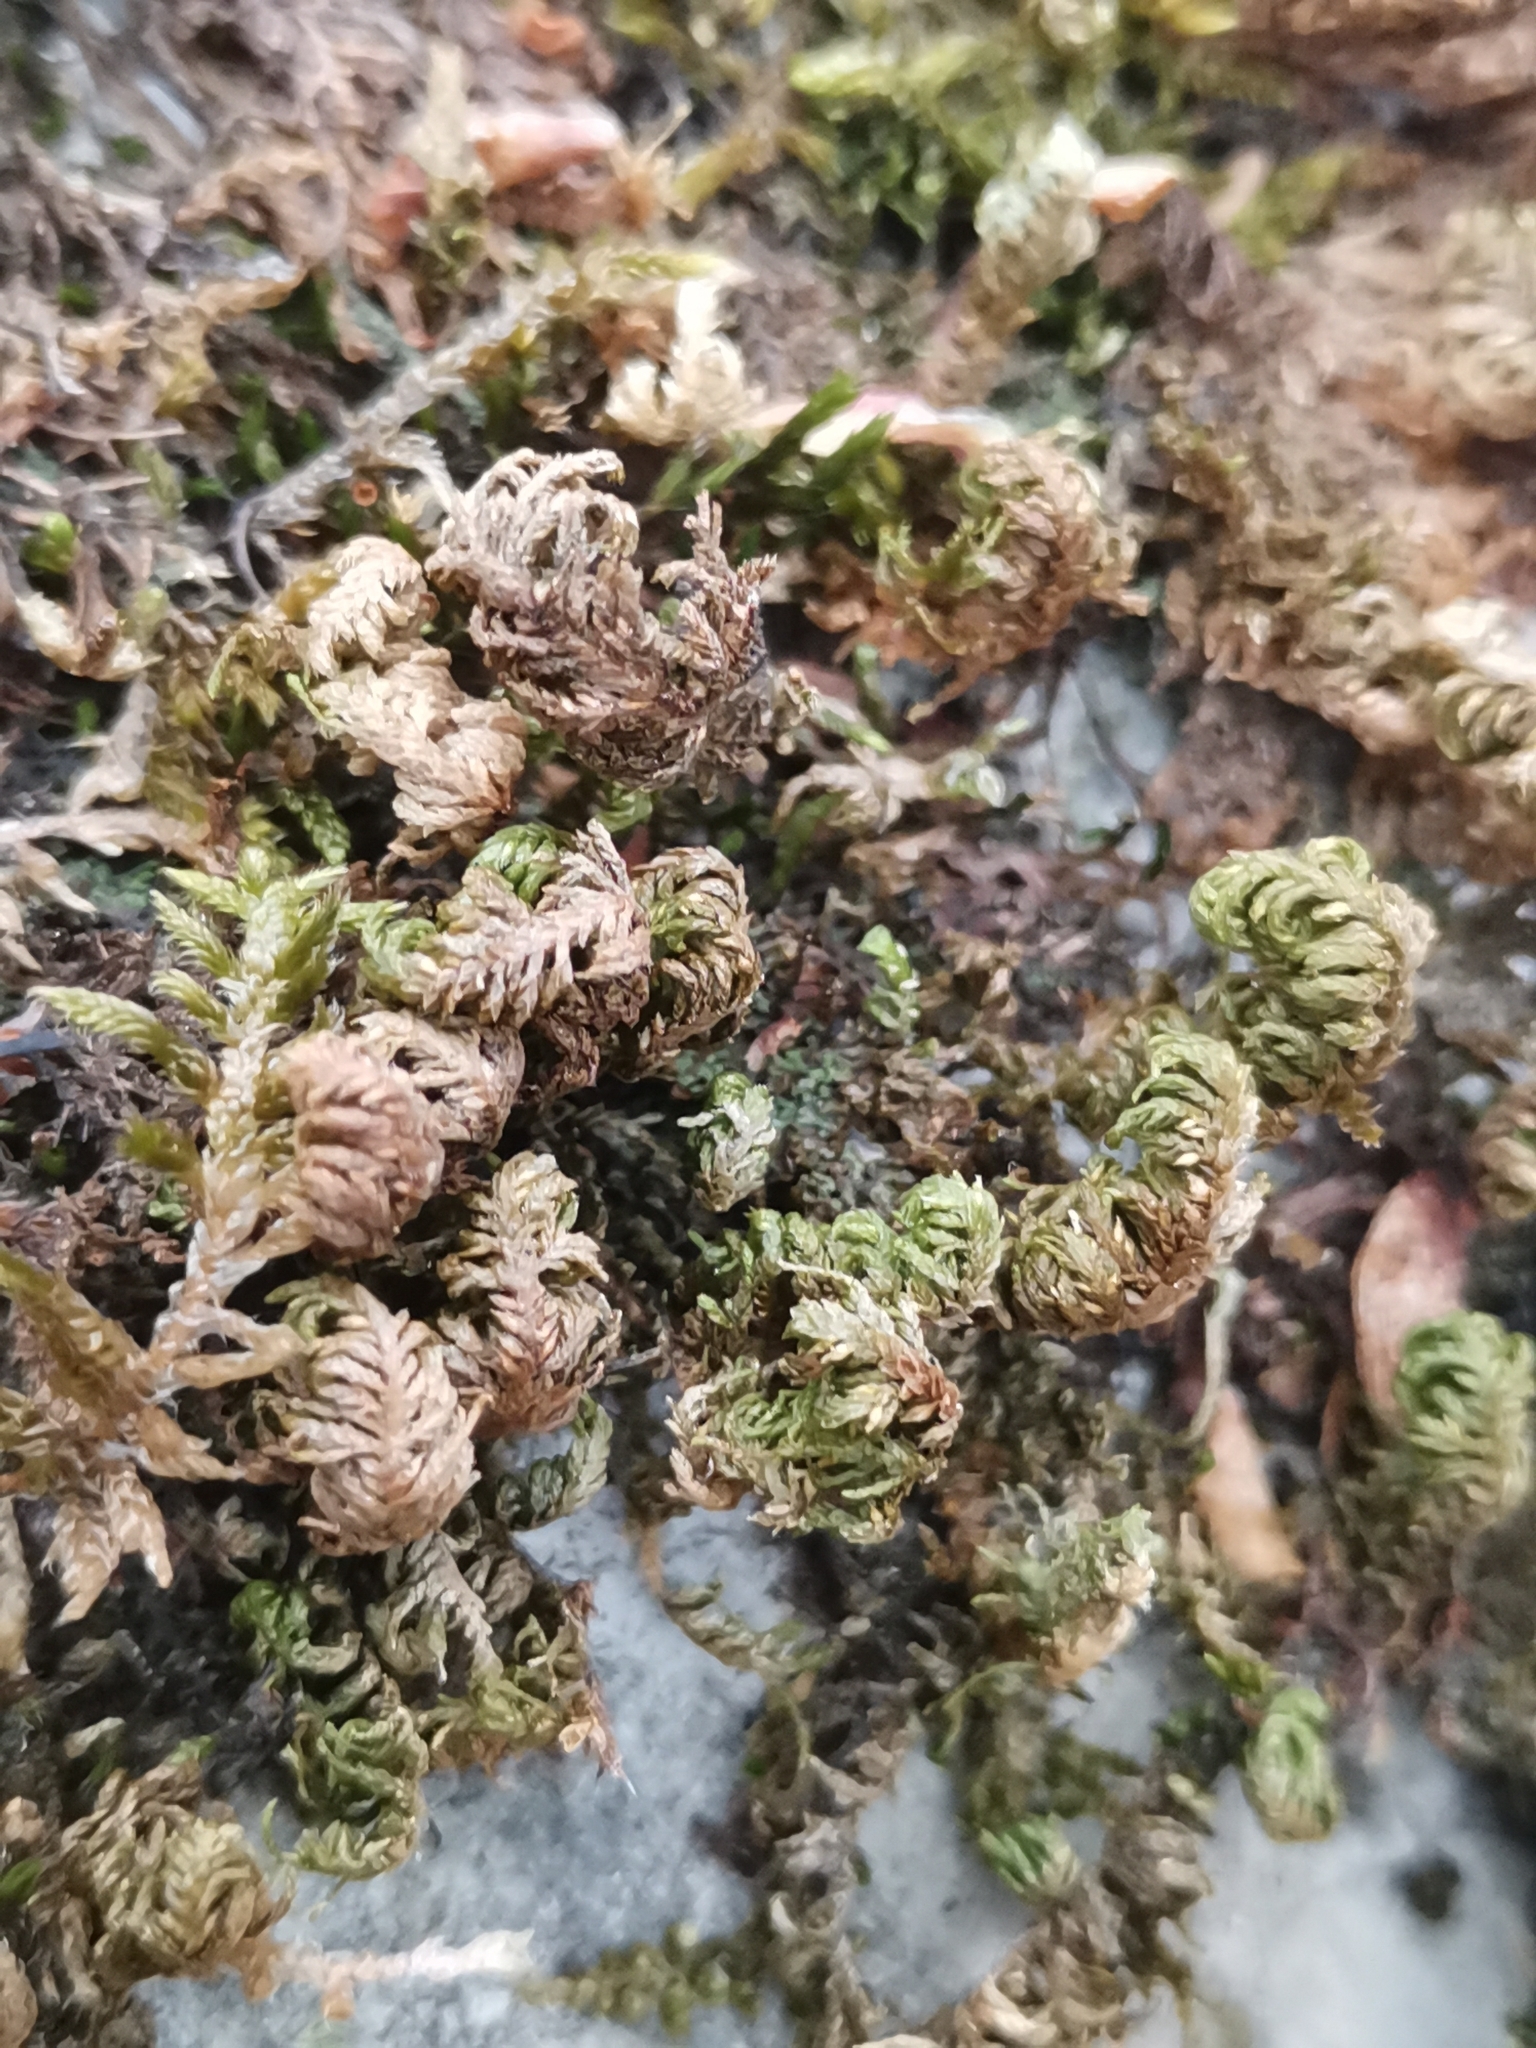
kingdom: Plantae
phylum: Bryophyta
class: Bryopsida
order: Hypnales
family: Neckeraceae
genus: Leptodon
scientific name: Leptodon smithii
